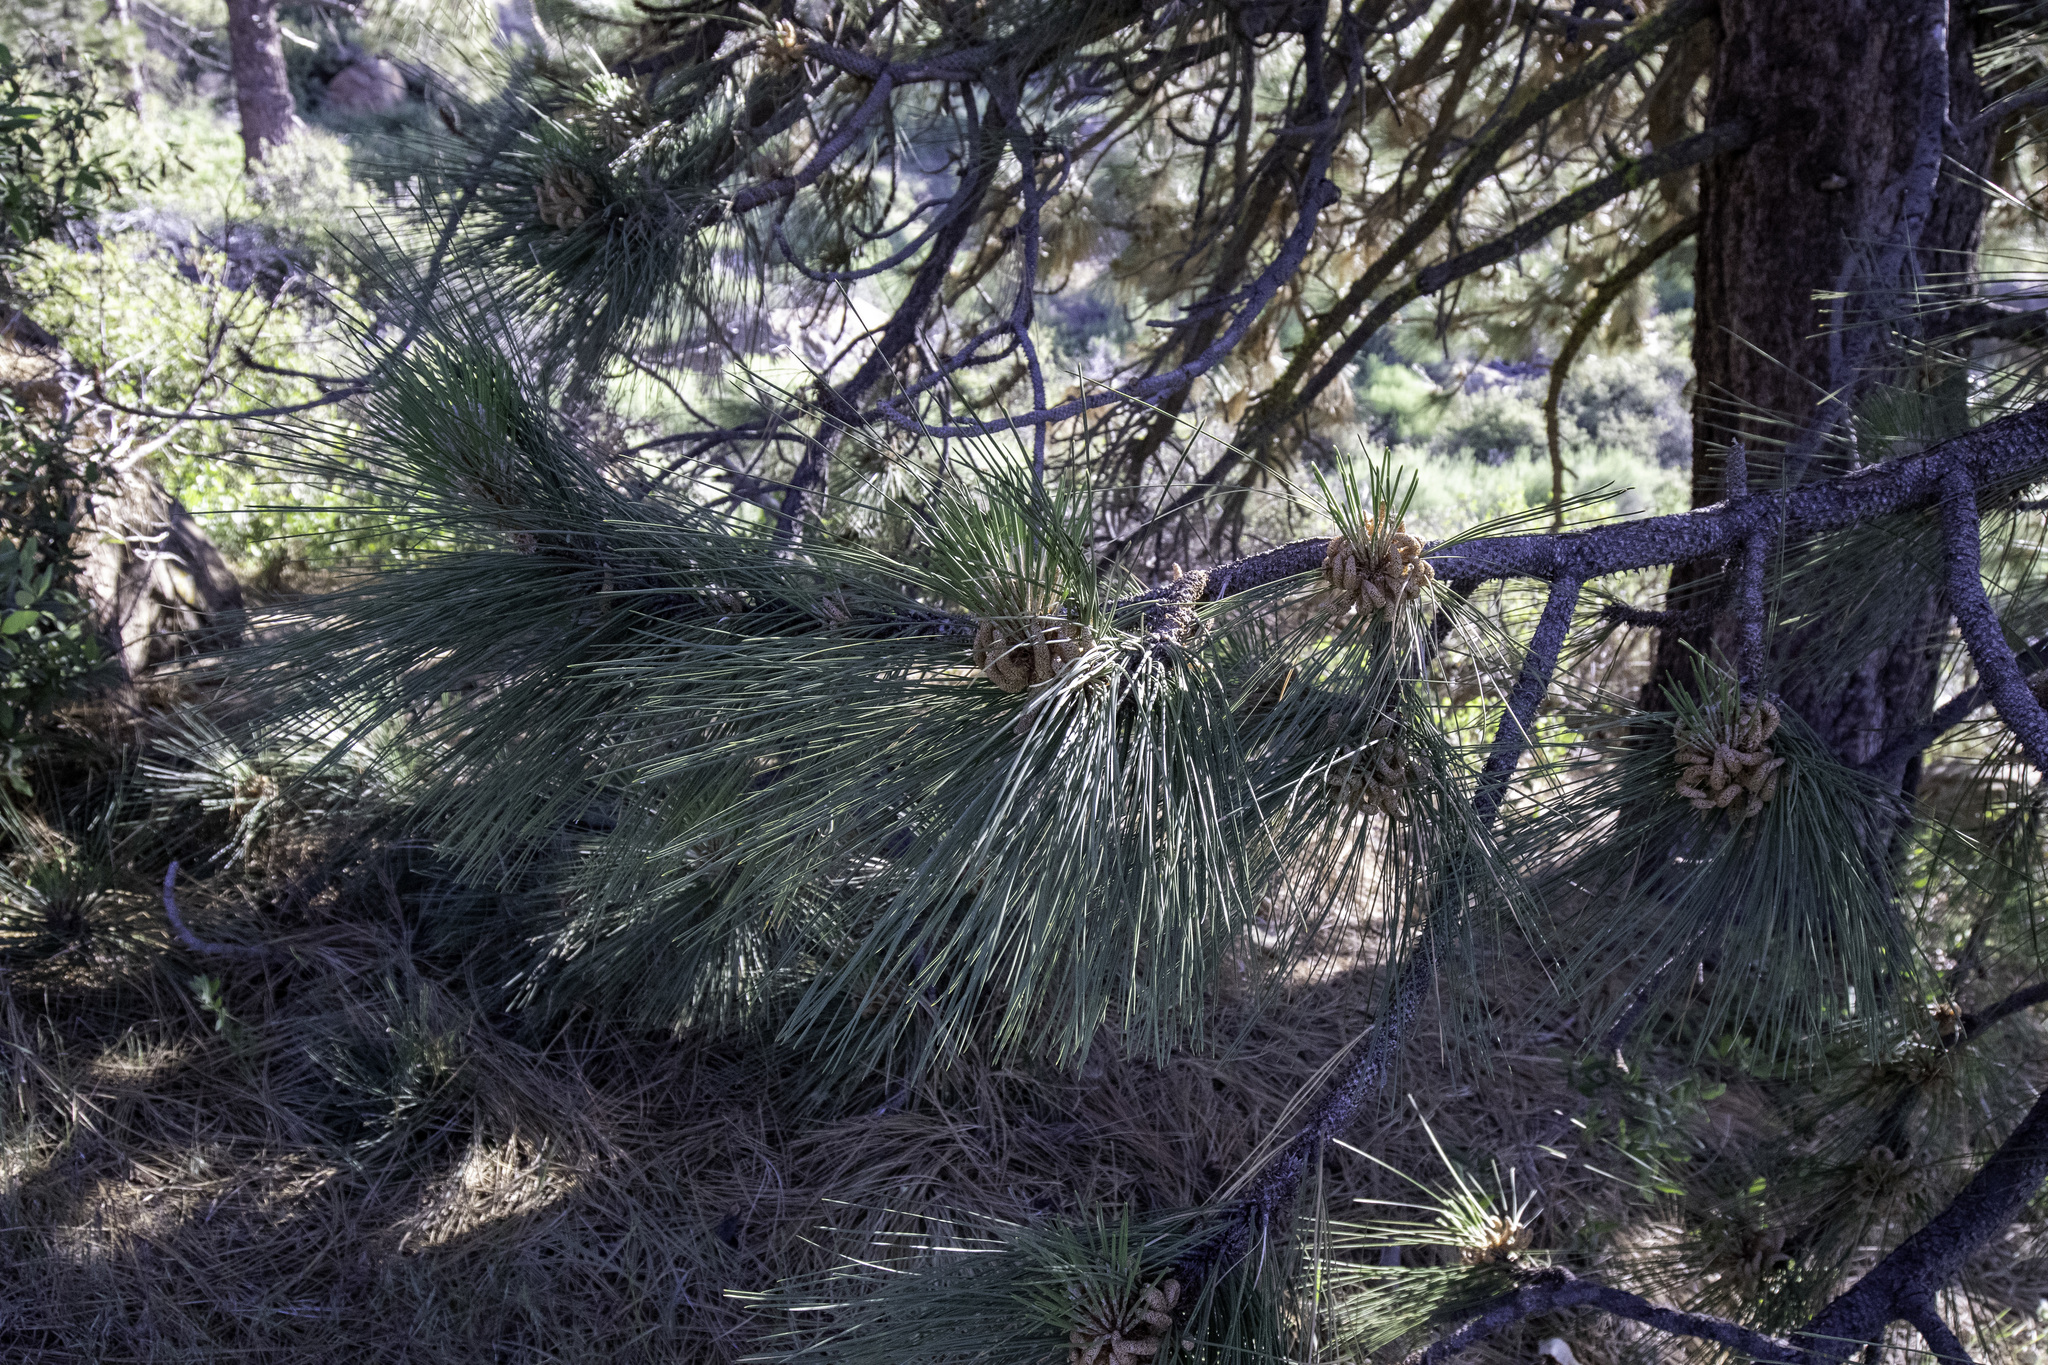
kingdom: Plantae
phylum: Tracheophyta
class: Pinopsida
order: Pinales
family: Pinaceae
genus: Pinus
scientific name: Pinus jeffreyi
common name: Jeffrey pine
